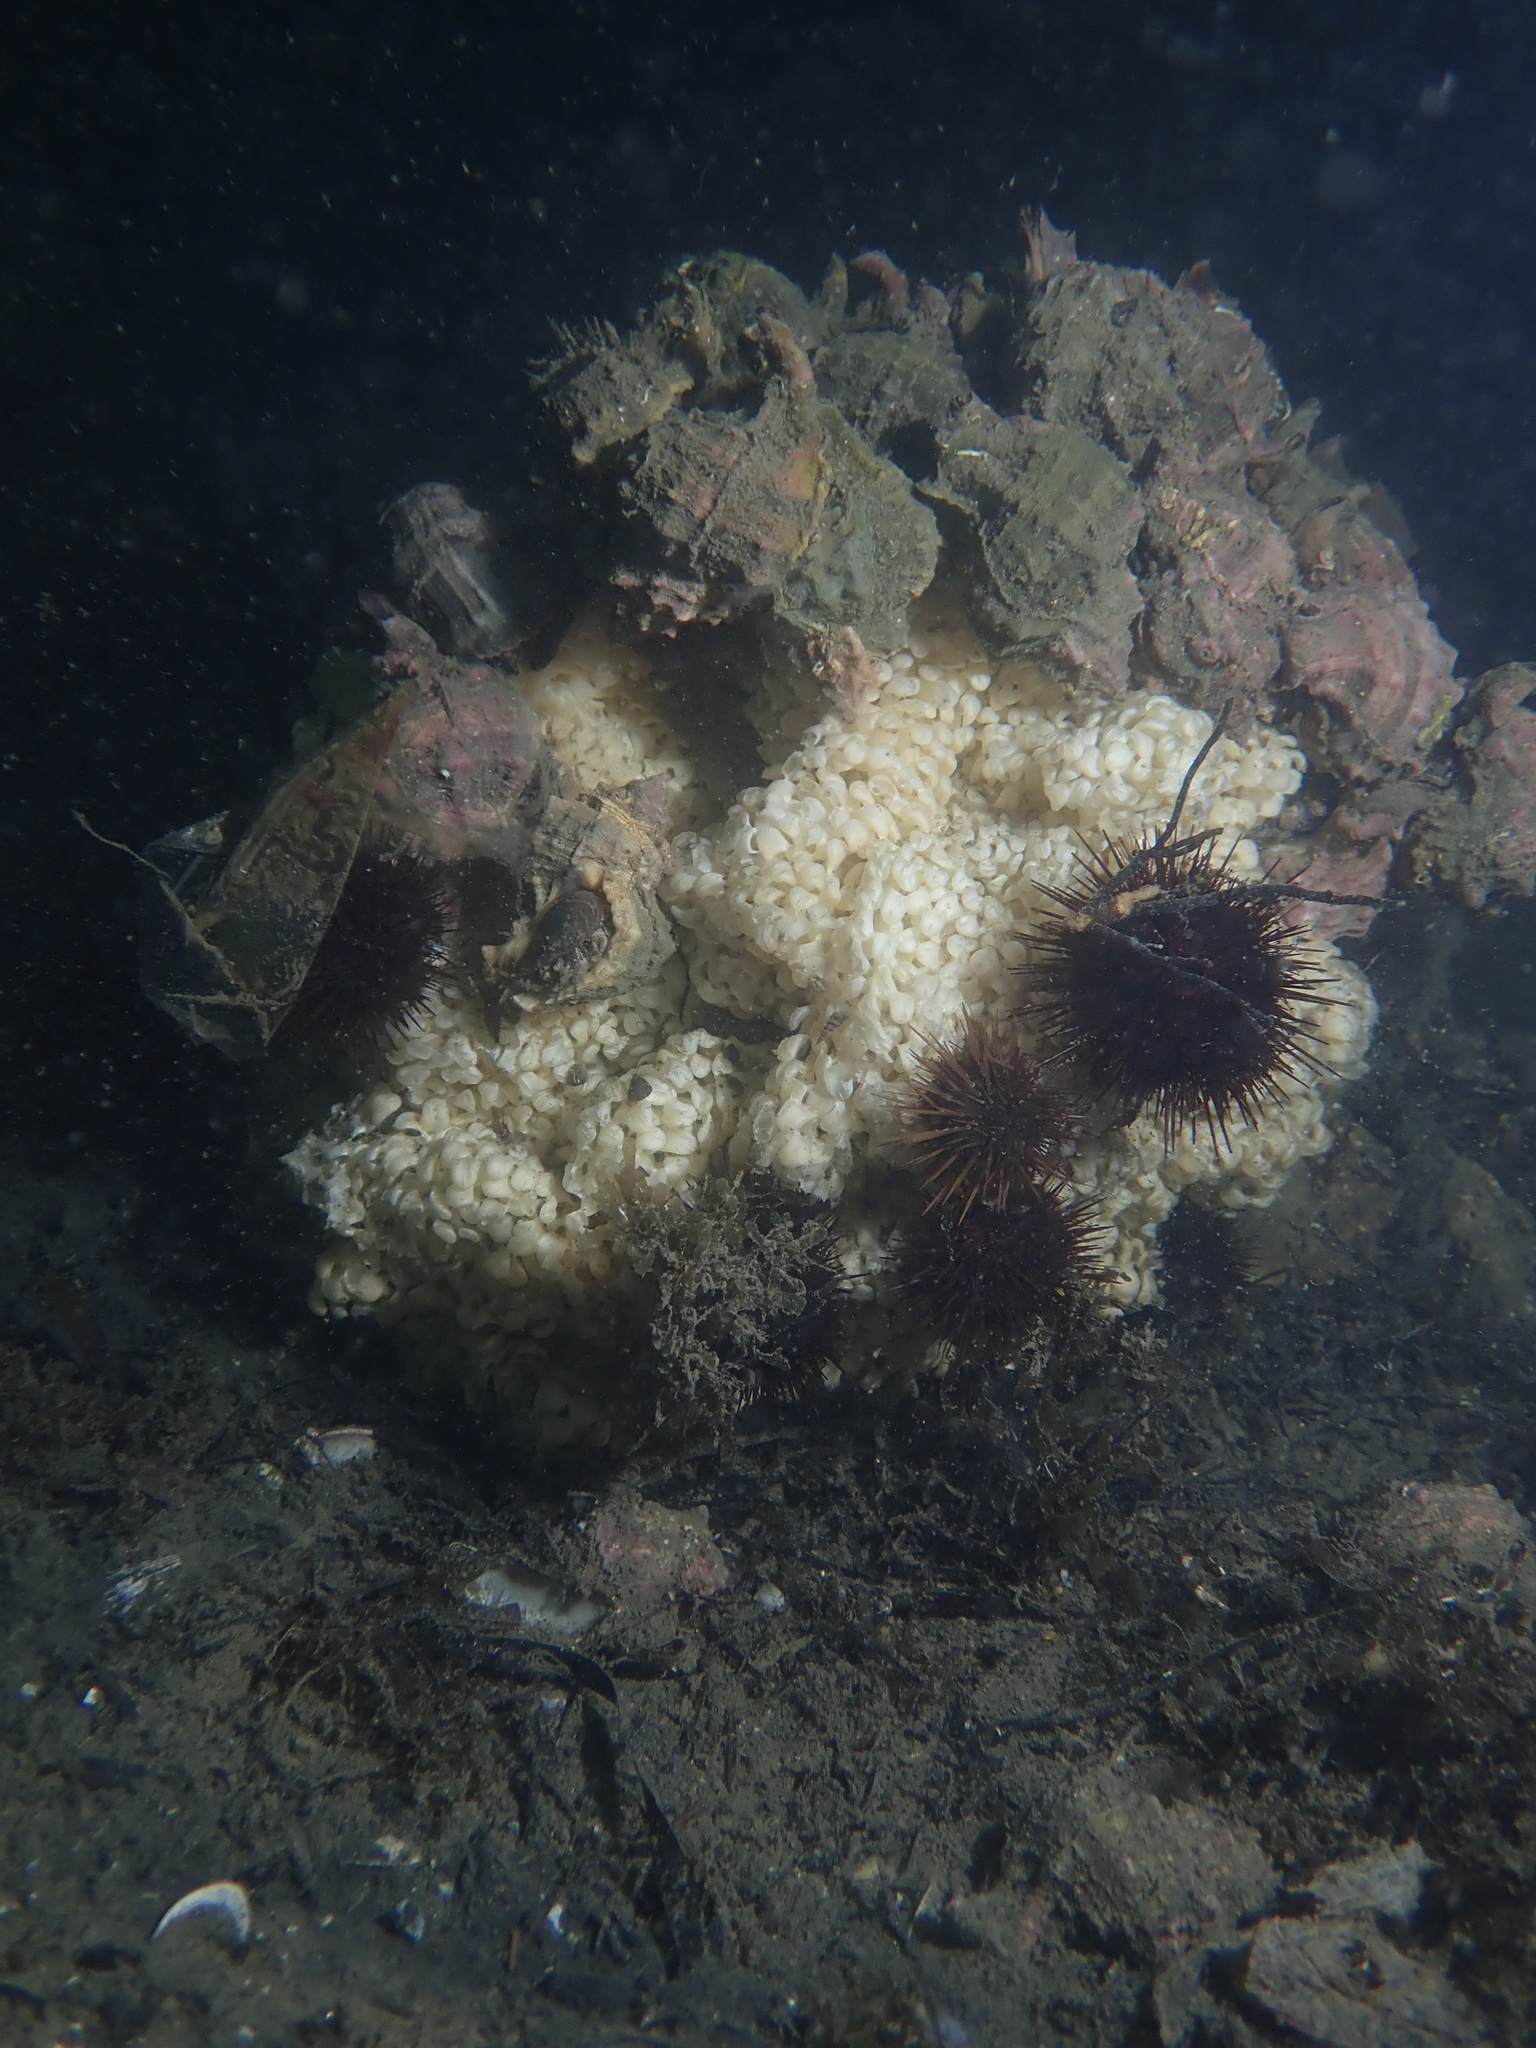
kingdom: Animalia
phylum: Mollusca
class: Gastropoda
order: Neogastropoda
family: Muricidae
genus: Hexaplex
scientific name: Hexaplex trunculus
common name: Banded dye-murex
